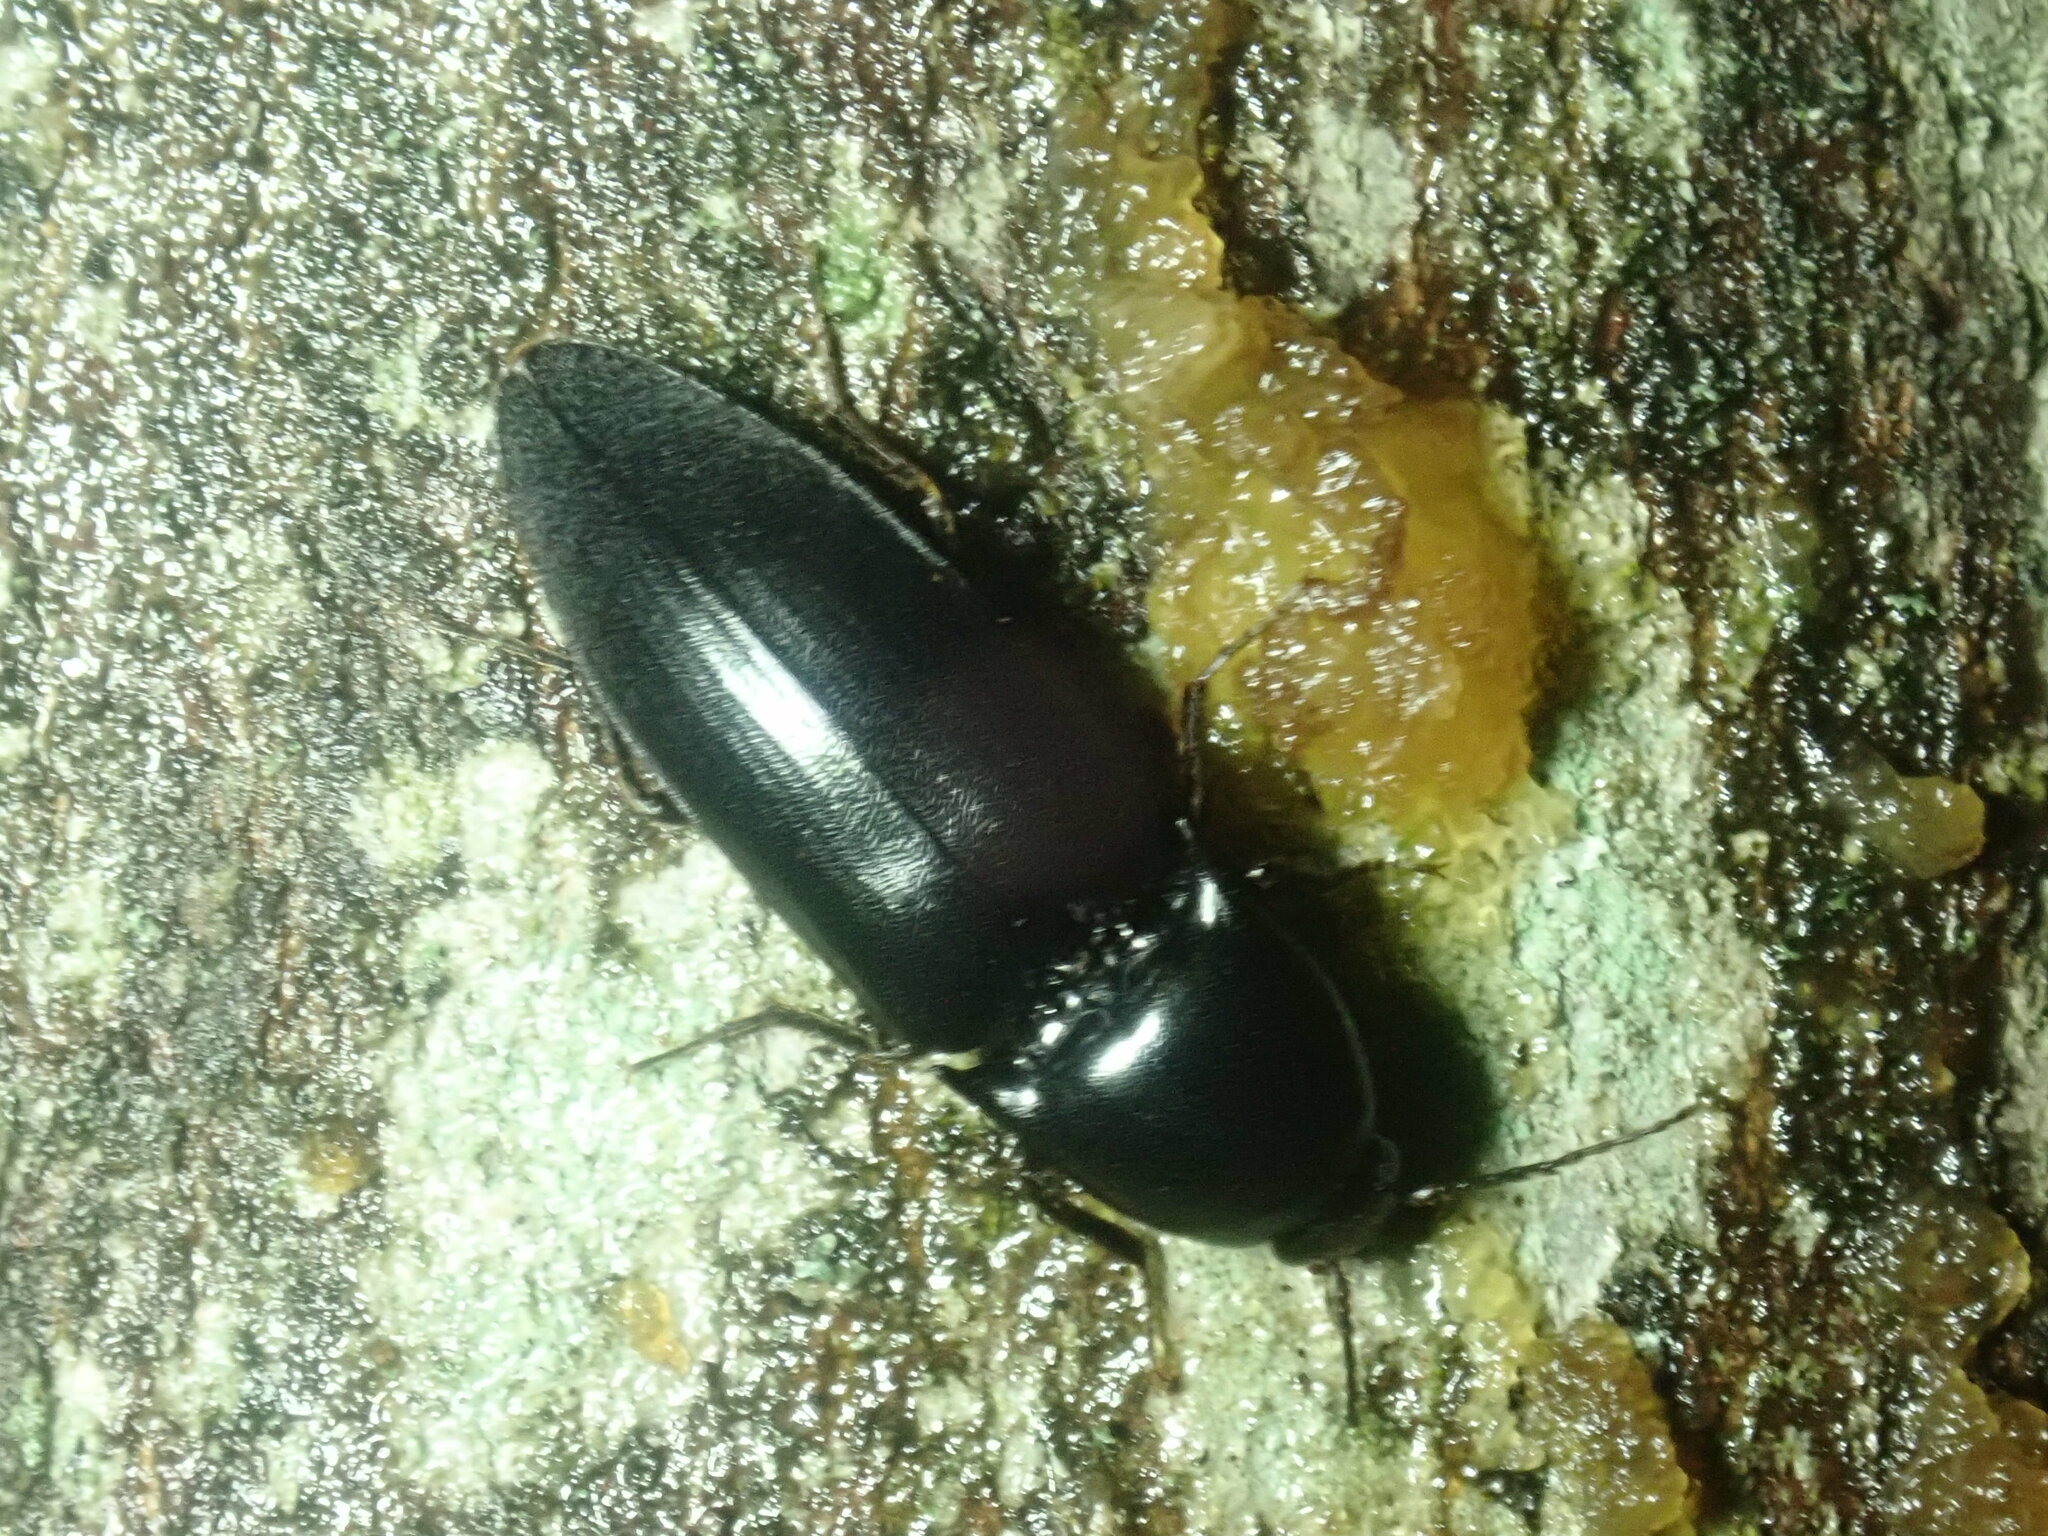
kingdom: Animalia
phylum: Arthropoda
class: Insecta
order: Coleoptera
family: Elateridae
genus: Elater
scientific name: Elater abruptus
